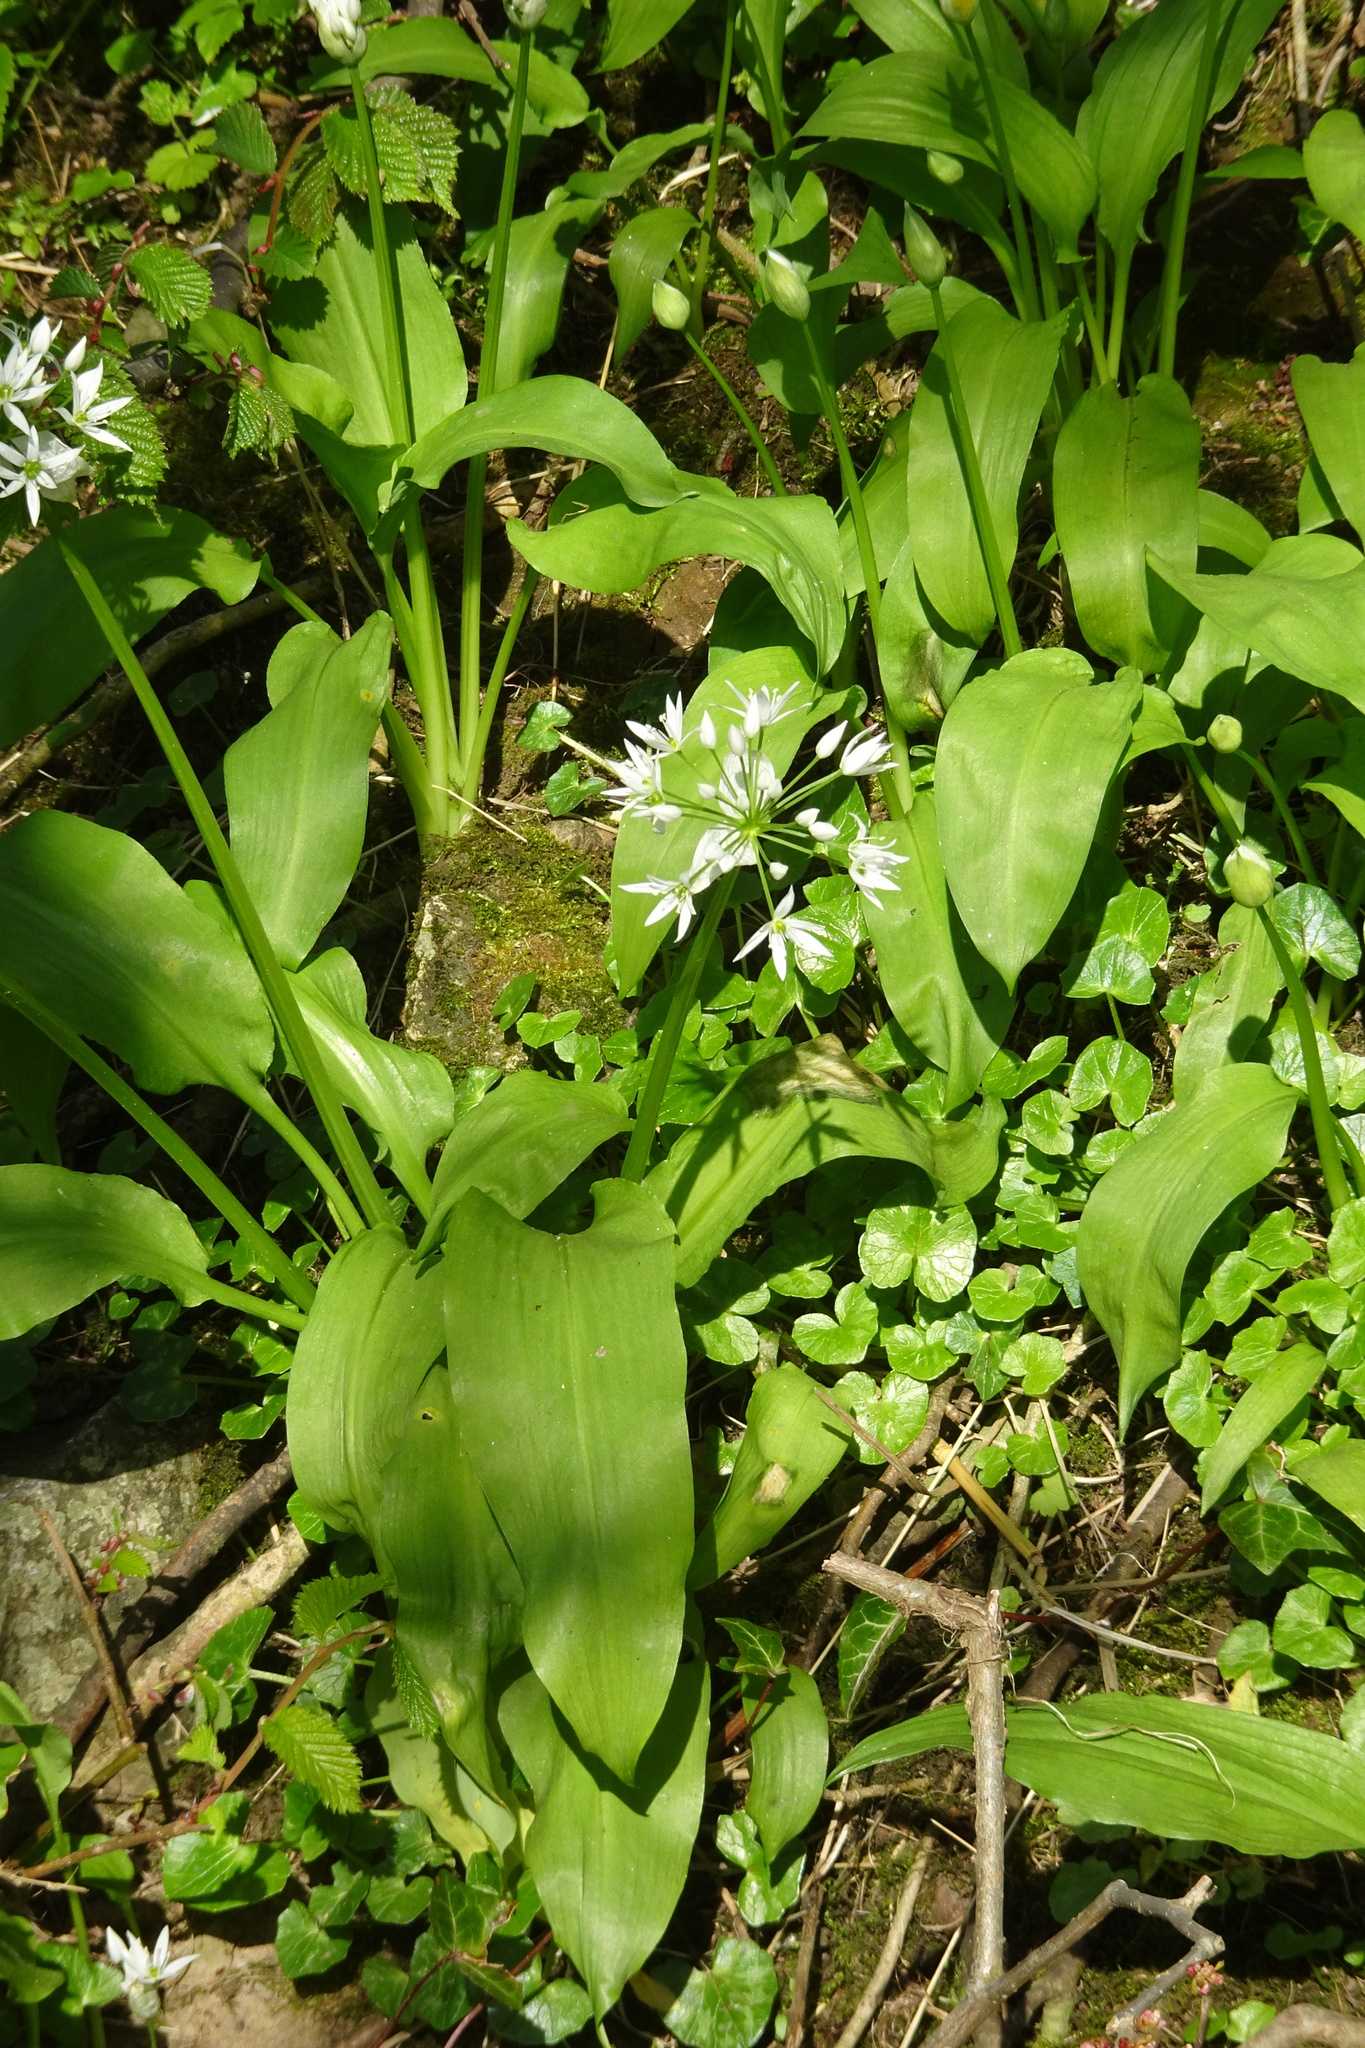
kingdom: Plantae
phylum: Tracheophyta
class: Liliopsida
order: Asparagales
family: Amaryllidaceae
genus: Allium
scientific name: Allium ursinum
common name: Ramsons
